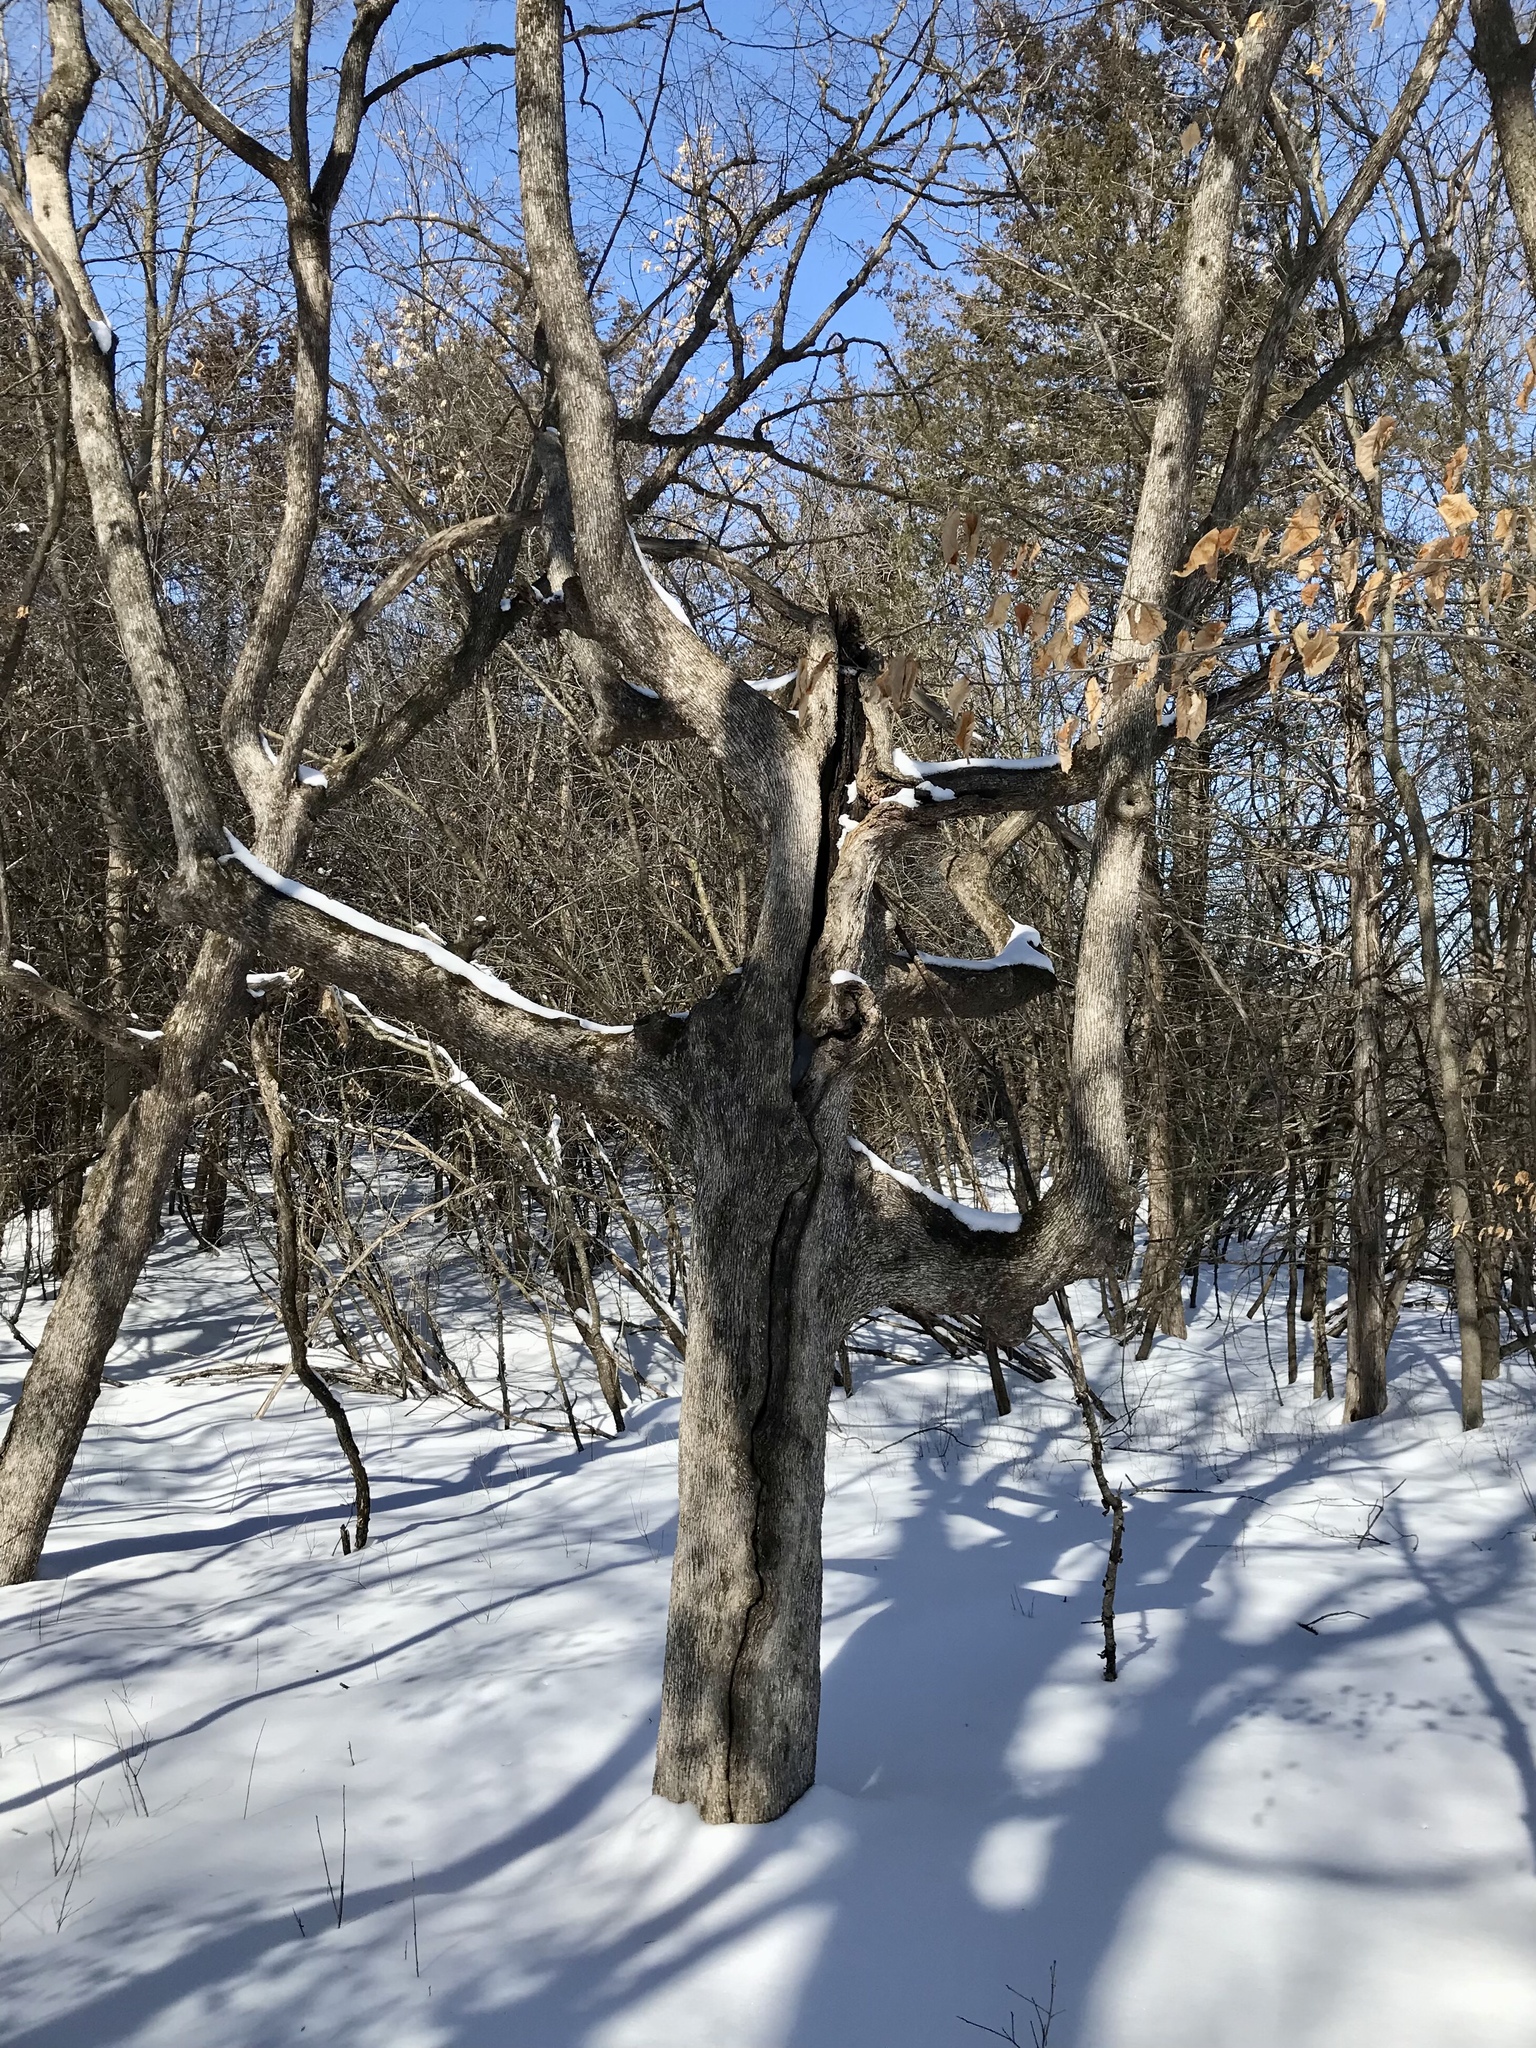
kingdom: Plantae
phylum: Tracheophyta
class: Magnoliopsida
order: Fagales
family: Betulaceae
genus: Ostrya
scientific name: Ostrya virginiana
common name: Ironwood
